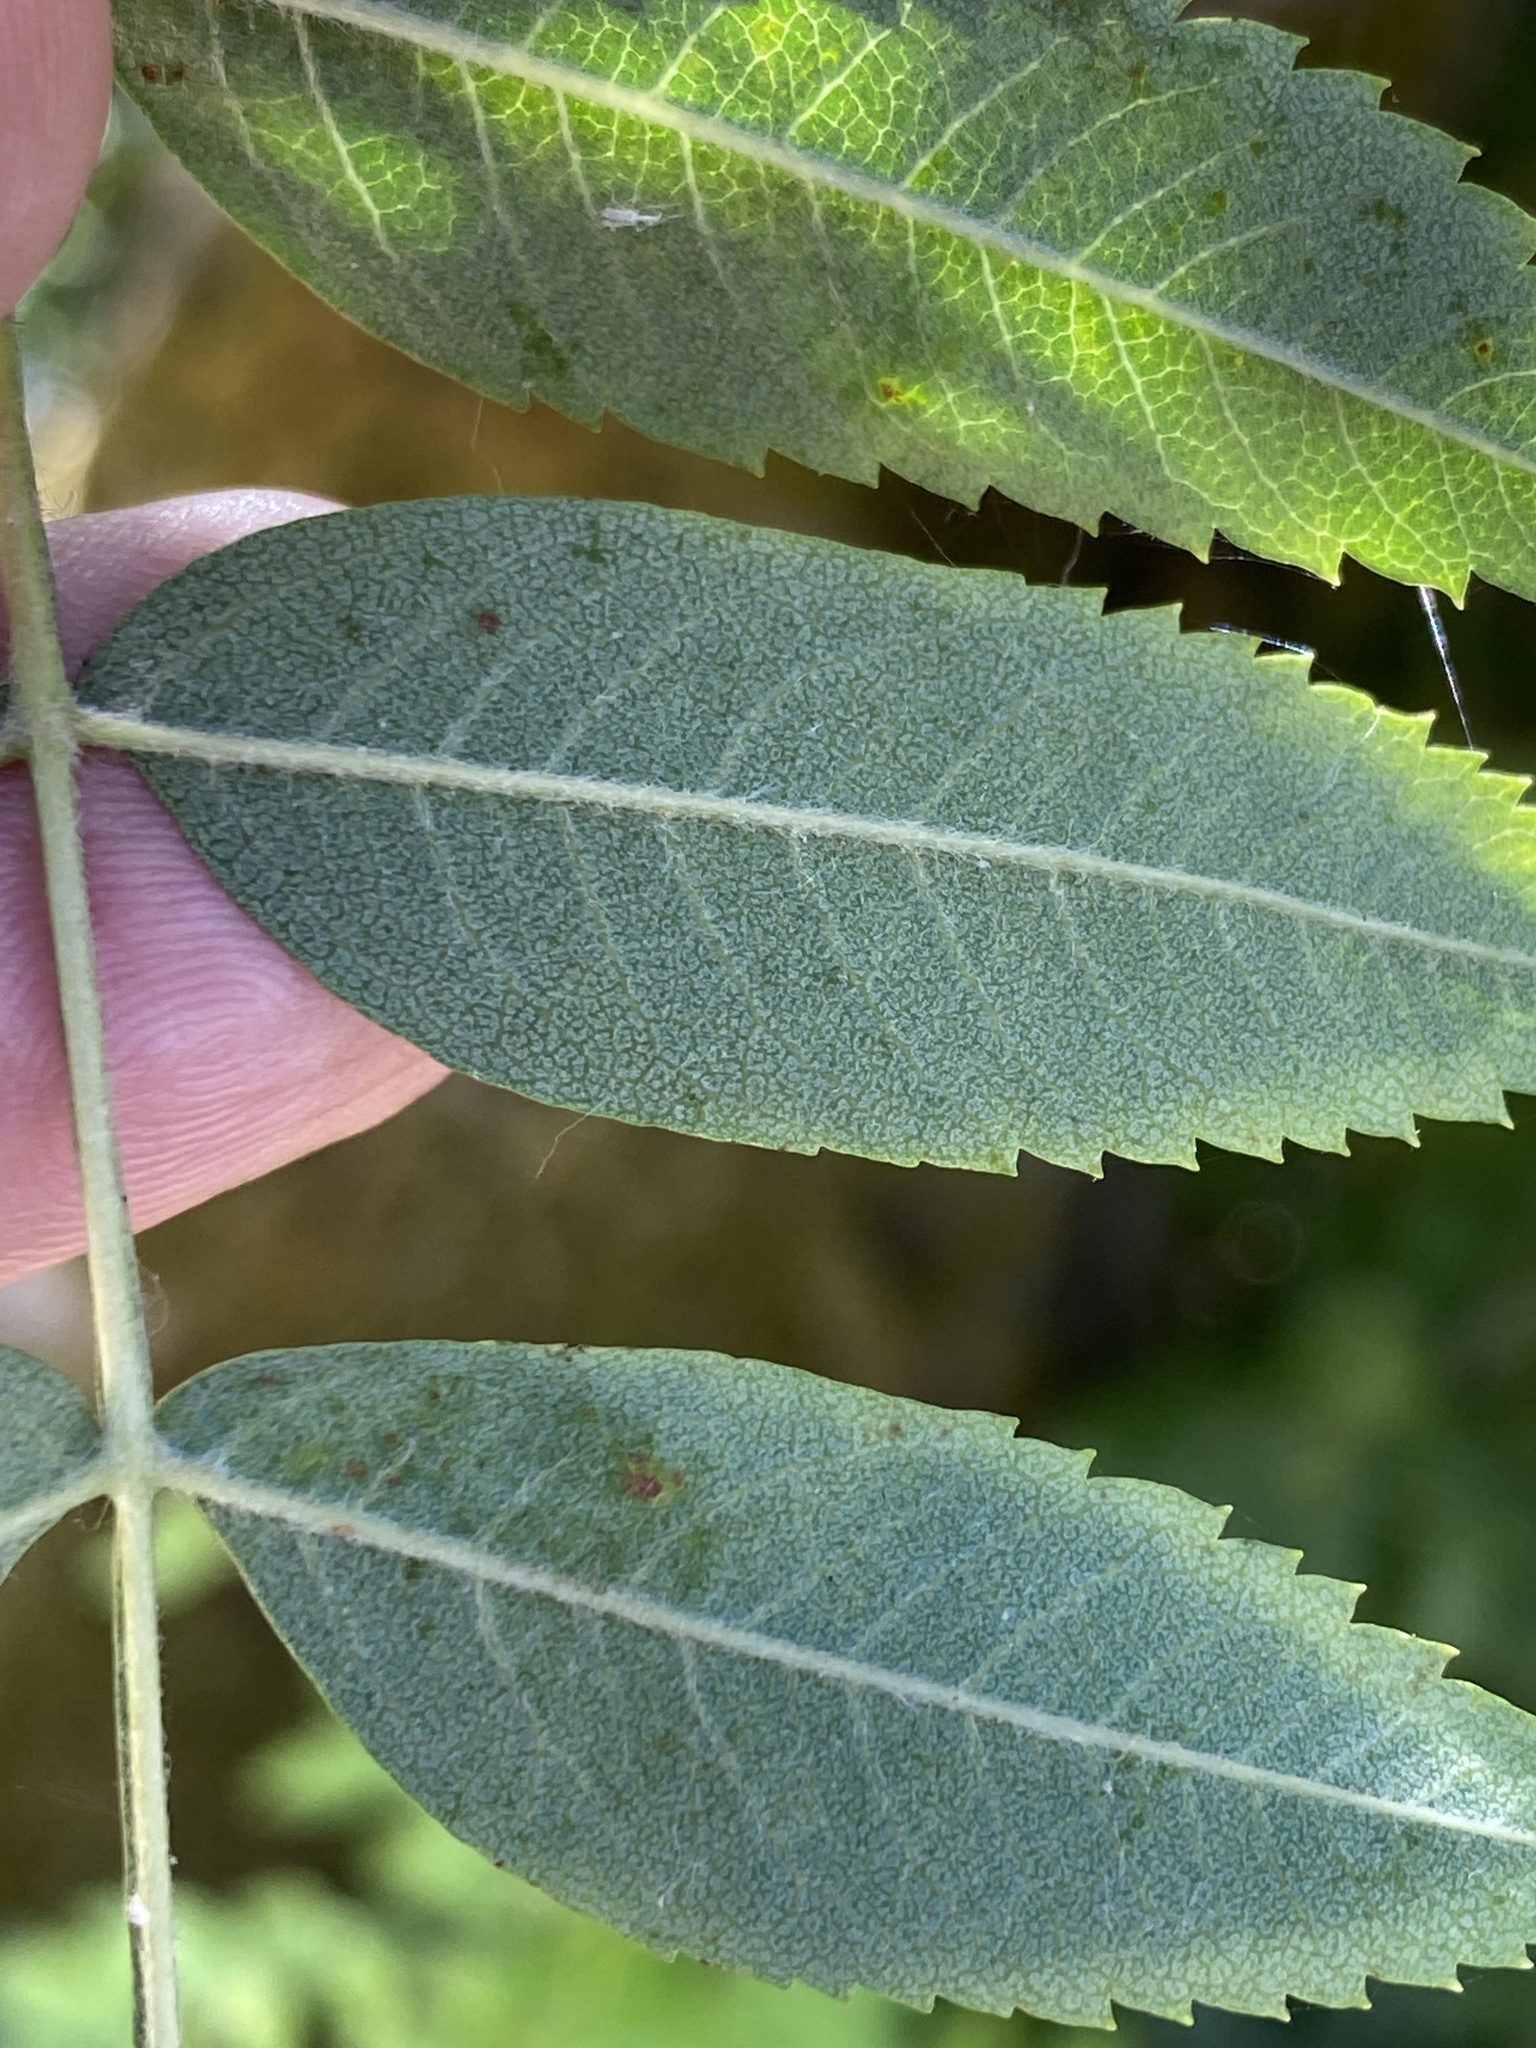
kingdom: Plantae
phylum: Tracheophyta
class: Magnoliopsida
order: Rosales
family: Rosaceae
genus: Sorbus
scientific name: Sorbus aucuparia
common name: Rowan
